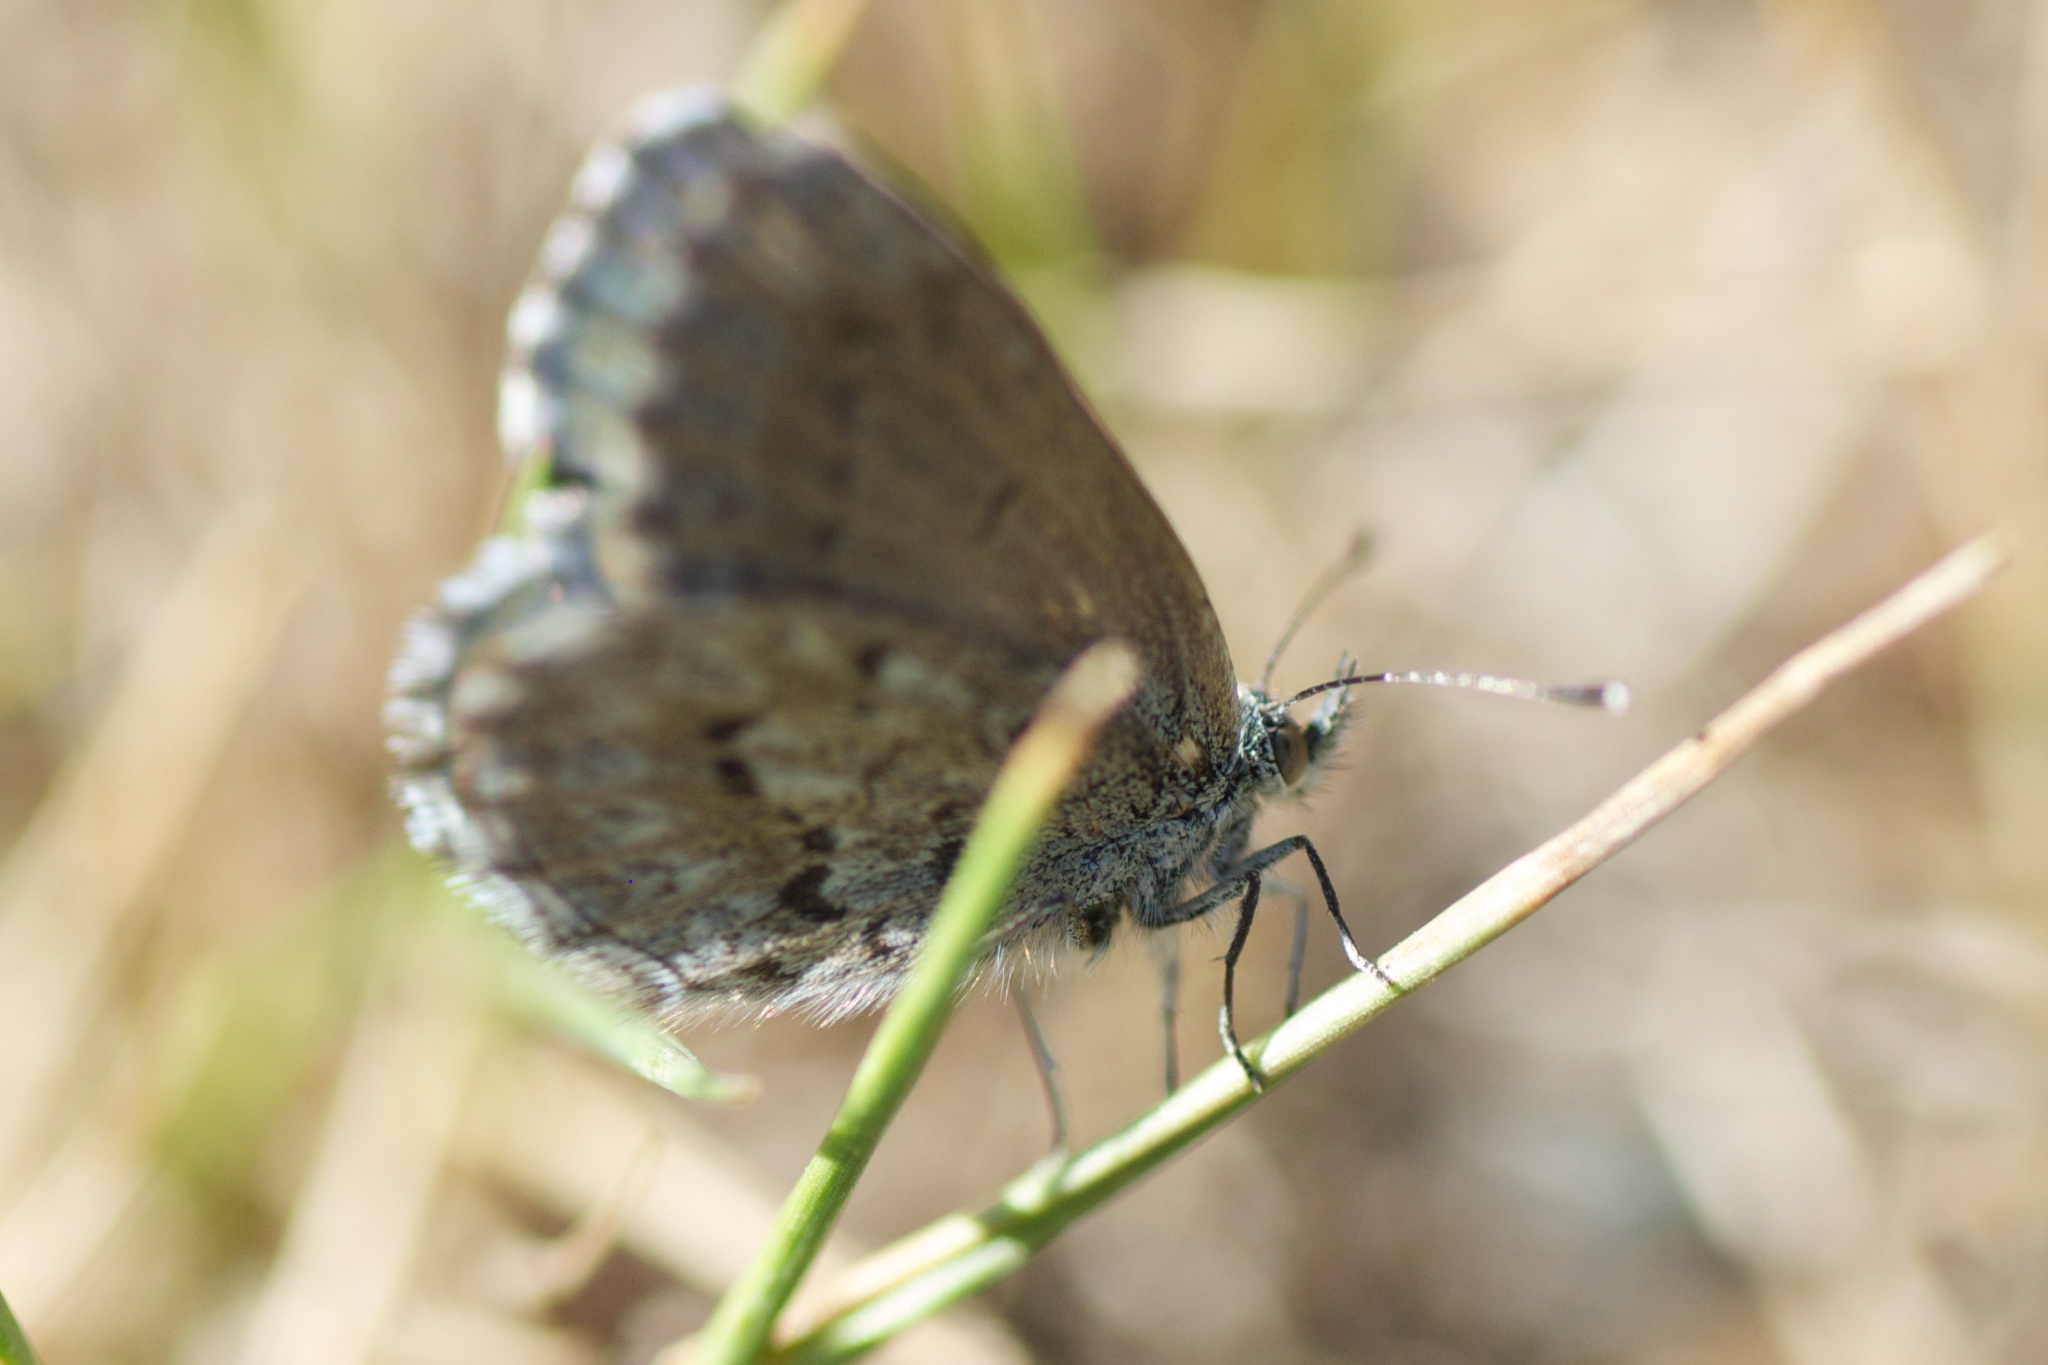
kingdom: Animalia
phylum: Arthropoda
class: Insecta
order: Lepidoptera
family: Lycaenidae
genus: Zizina
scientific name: Zizina oxleyi
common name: Southern blue
